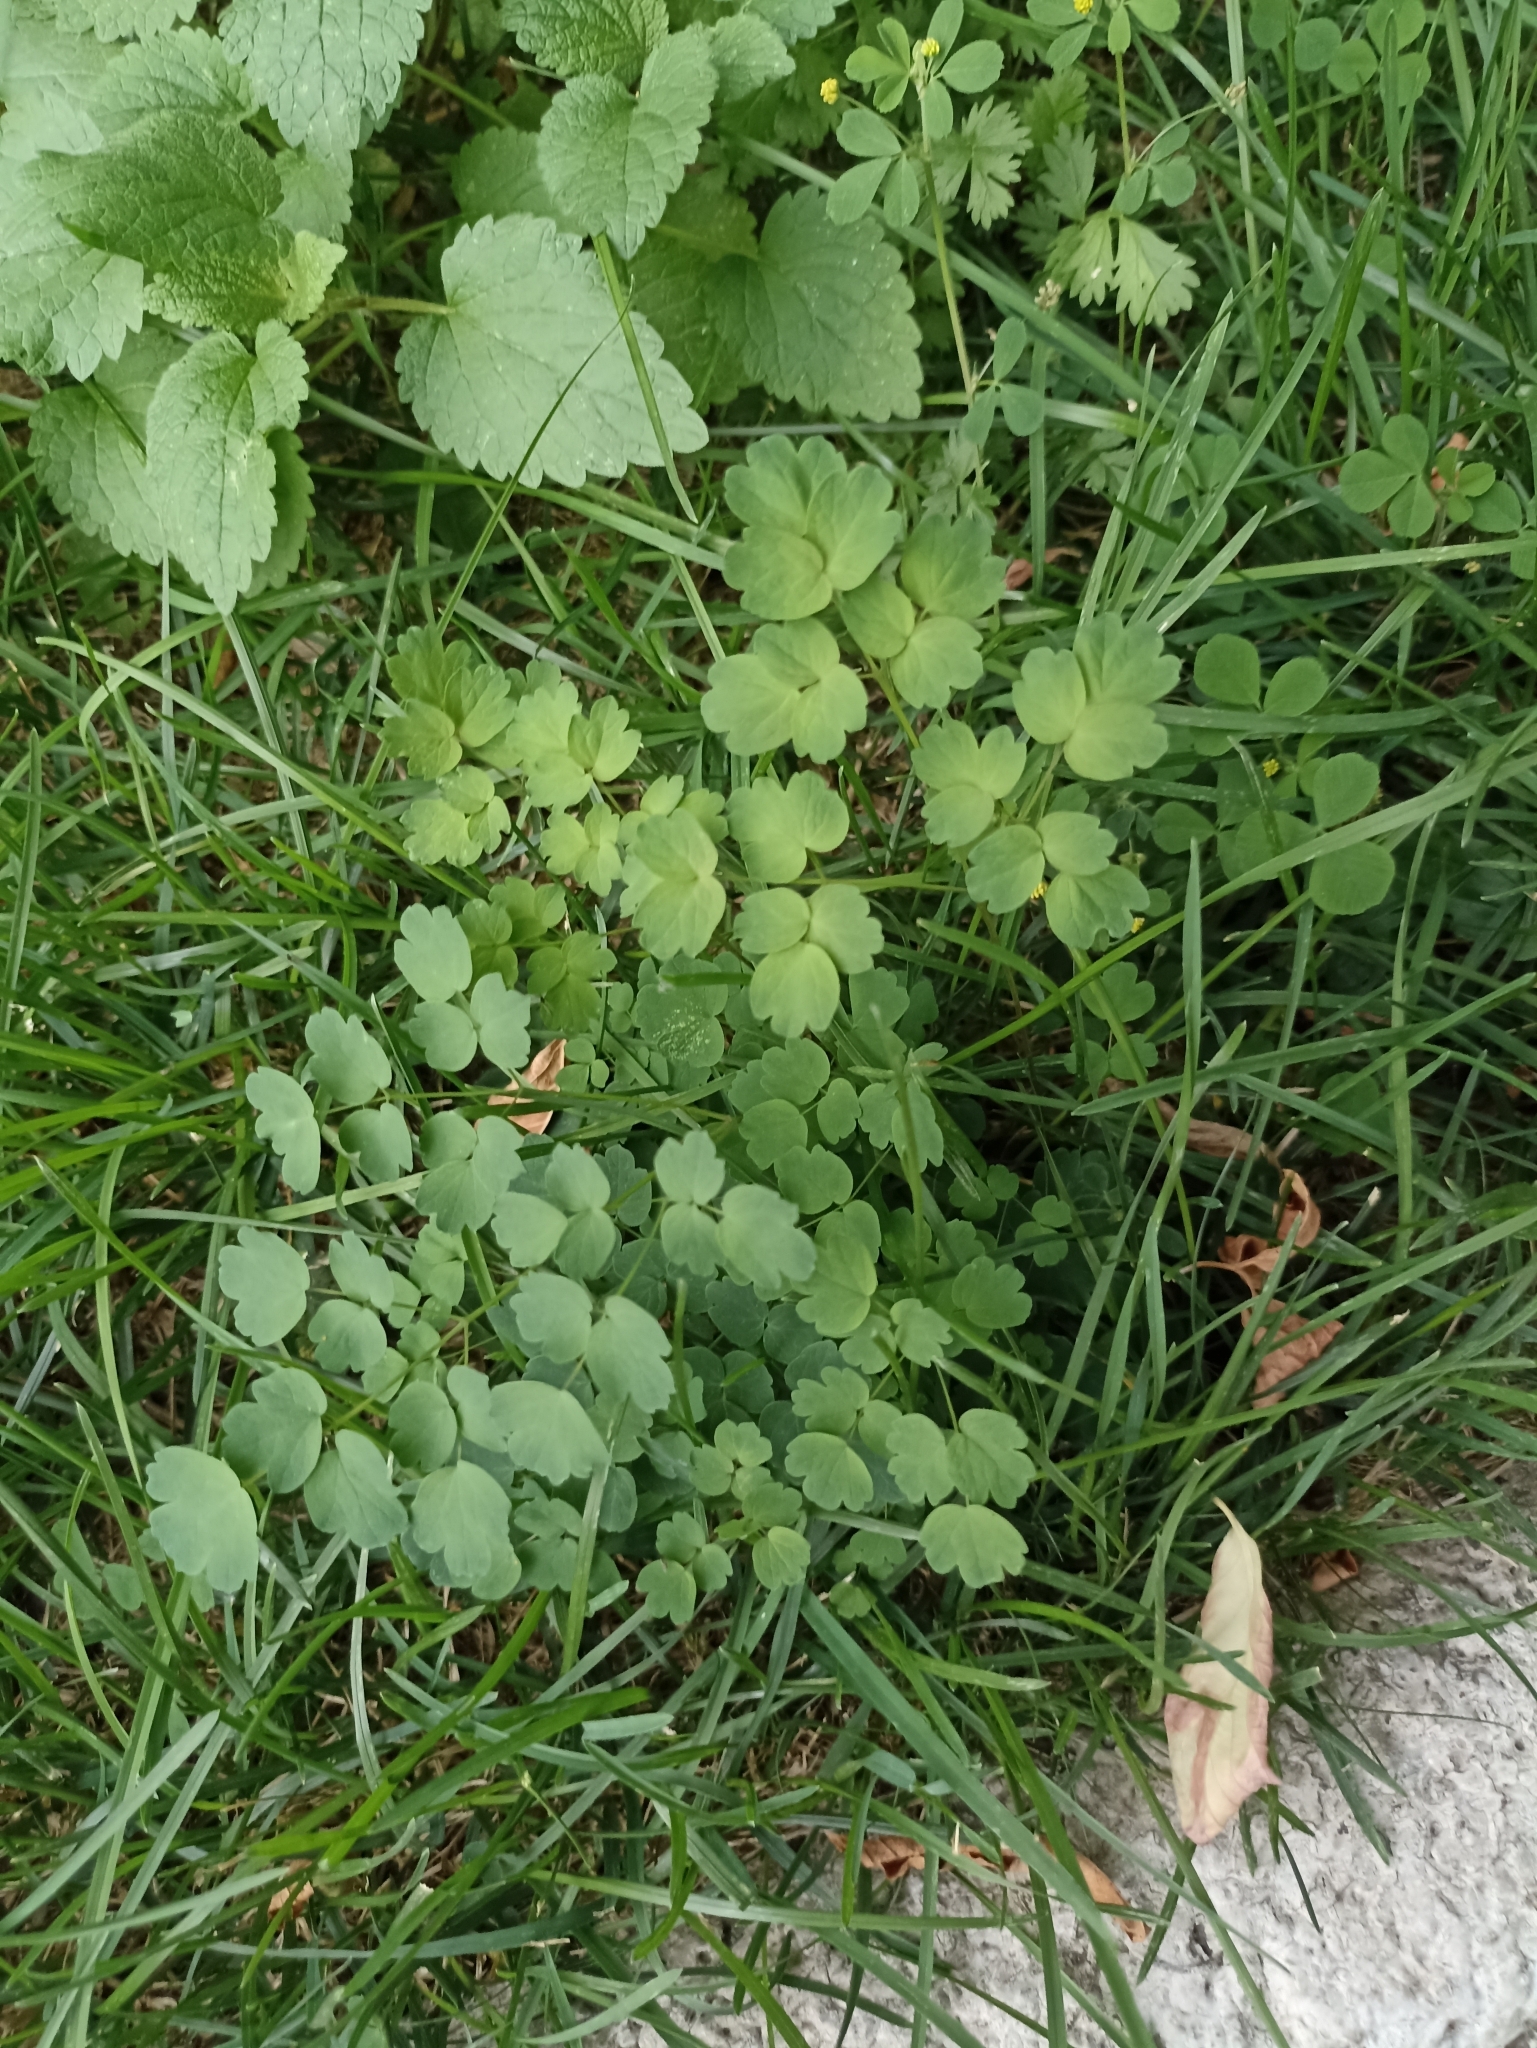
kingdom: Plantae
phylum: Tracheophyta
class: Magnoliopsida
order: Ranunculales
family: Ranunculaceae
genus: Thalictrum
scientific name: Thalictrum minus
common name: Lesser meadow-rue
